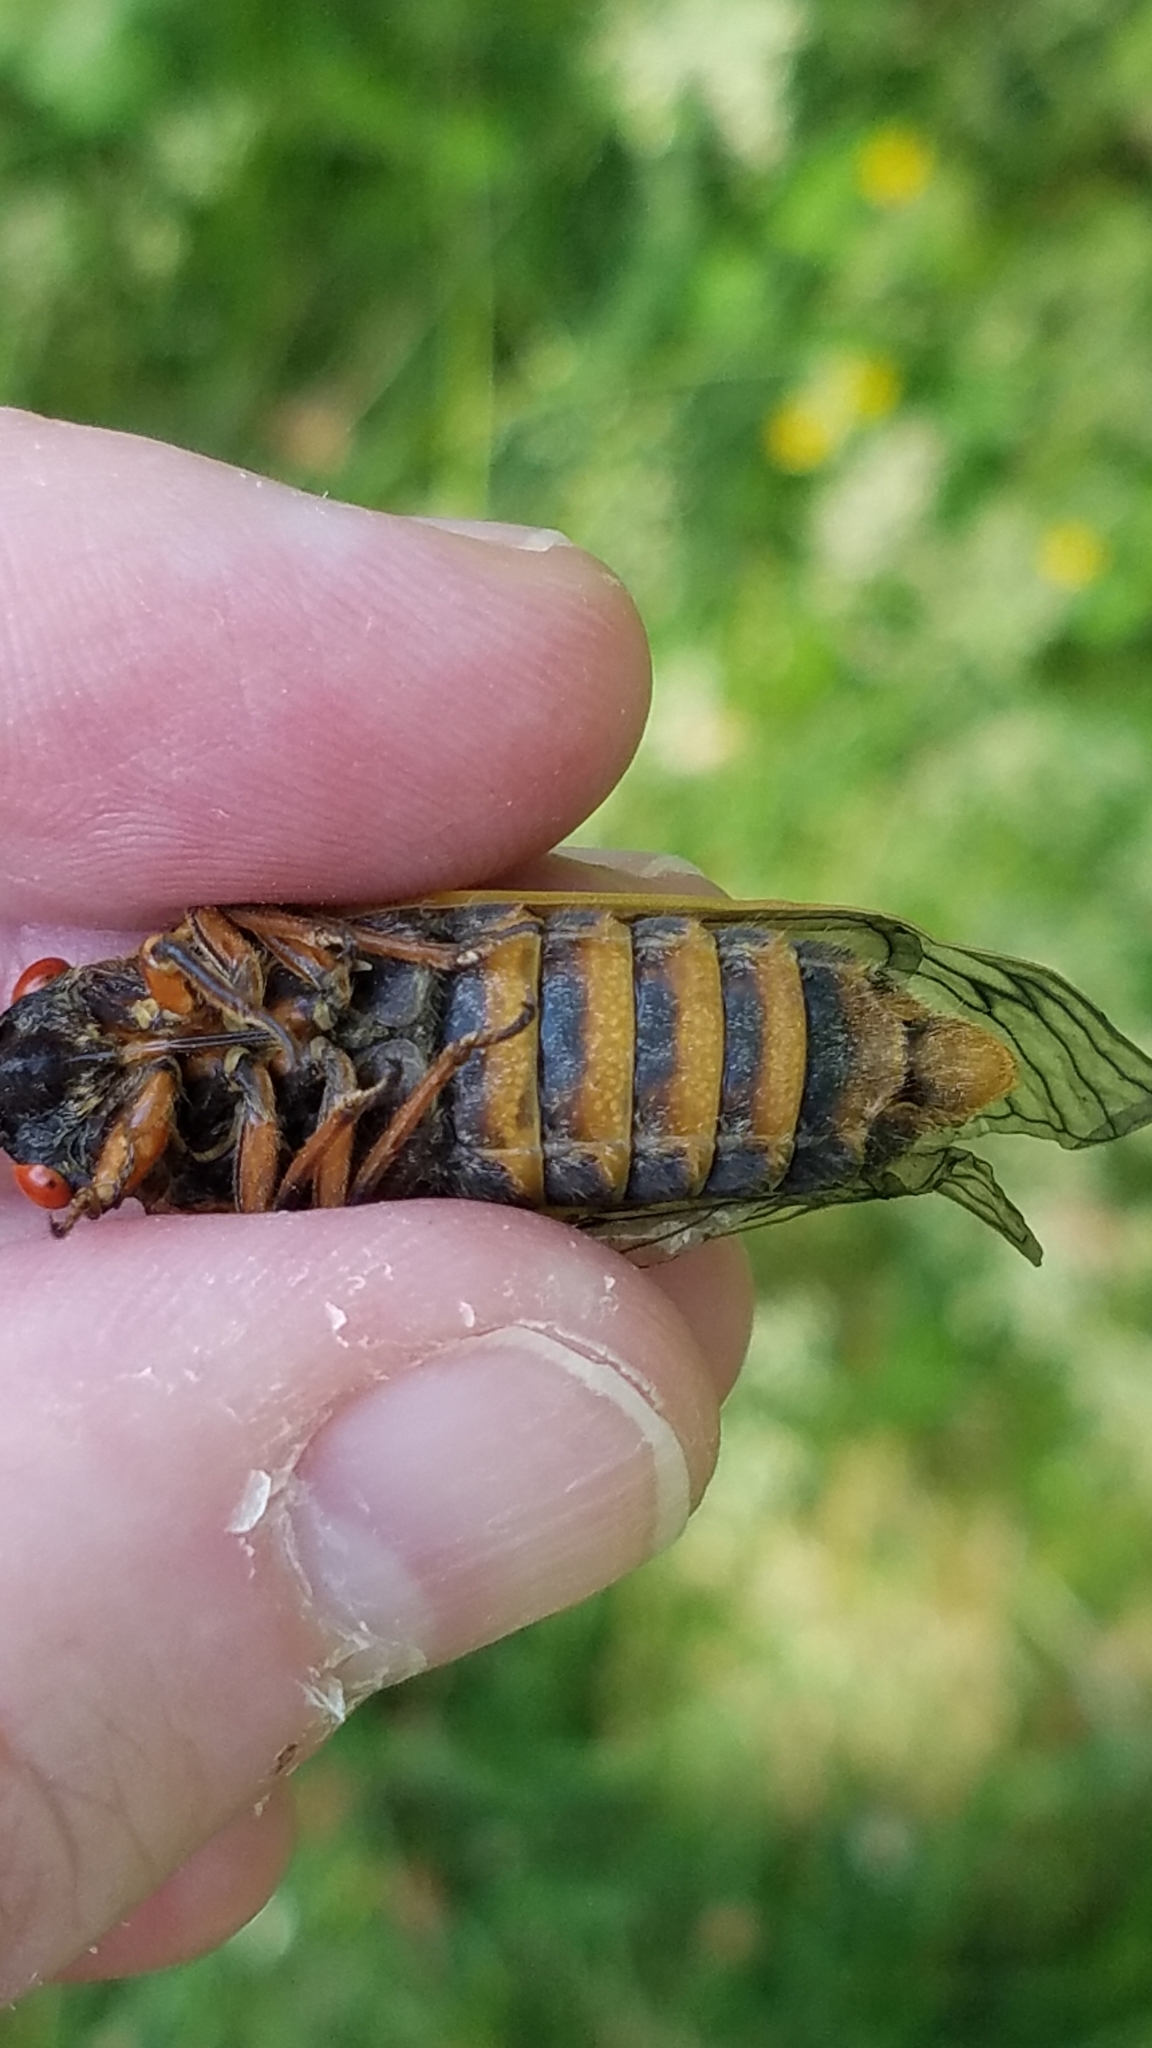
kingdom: Animalia
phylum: Arthropoda
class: Insecta
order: Hemiptera
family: Cicadidae
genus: Magicicada
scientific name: Magicicada septendecim
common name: Periodical cicada
